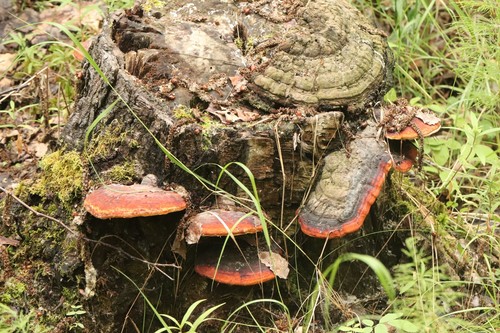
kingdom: Fungi
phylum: Basidiomycota
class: Agaricomycetes
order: Polyporales
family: Fomitopsidaceae
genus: Fomitopsis
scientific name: Fomitopsis pinicola
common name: Red-belted bracket
